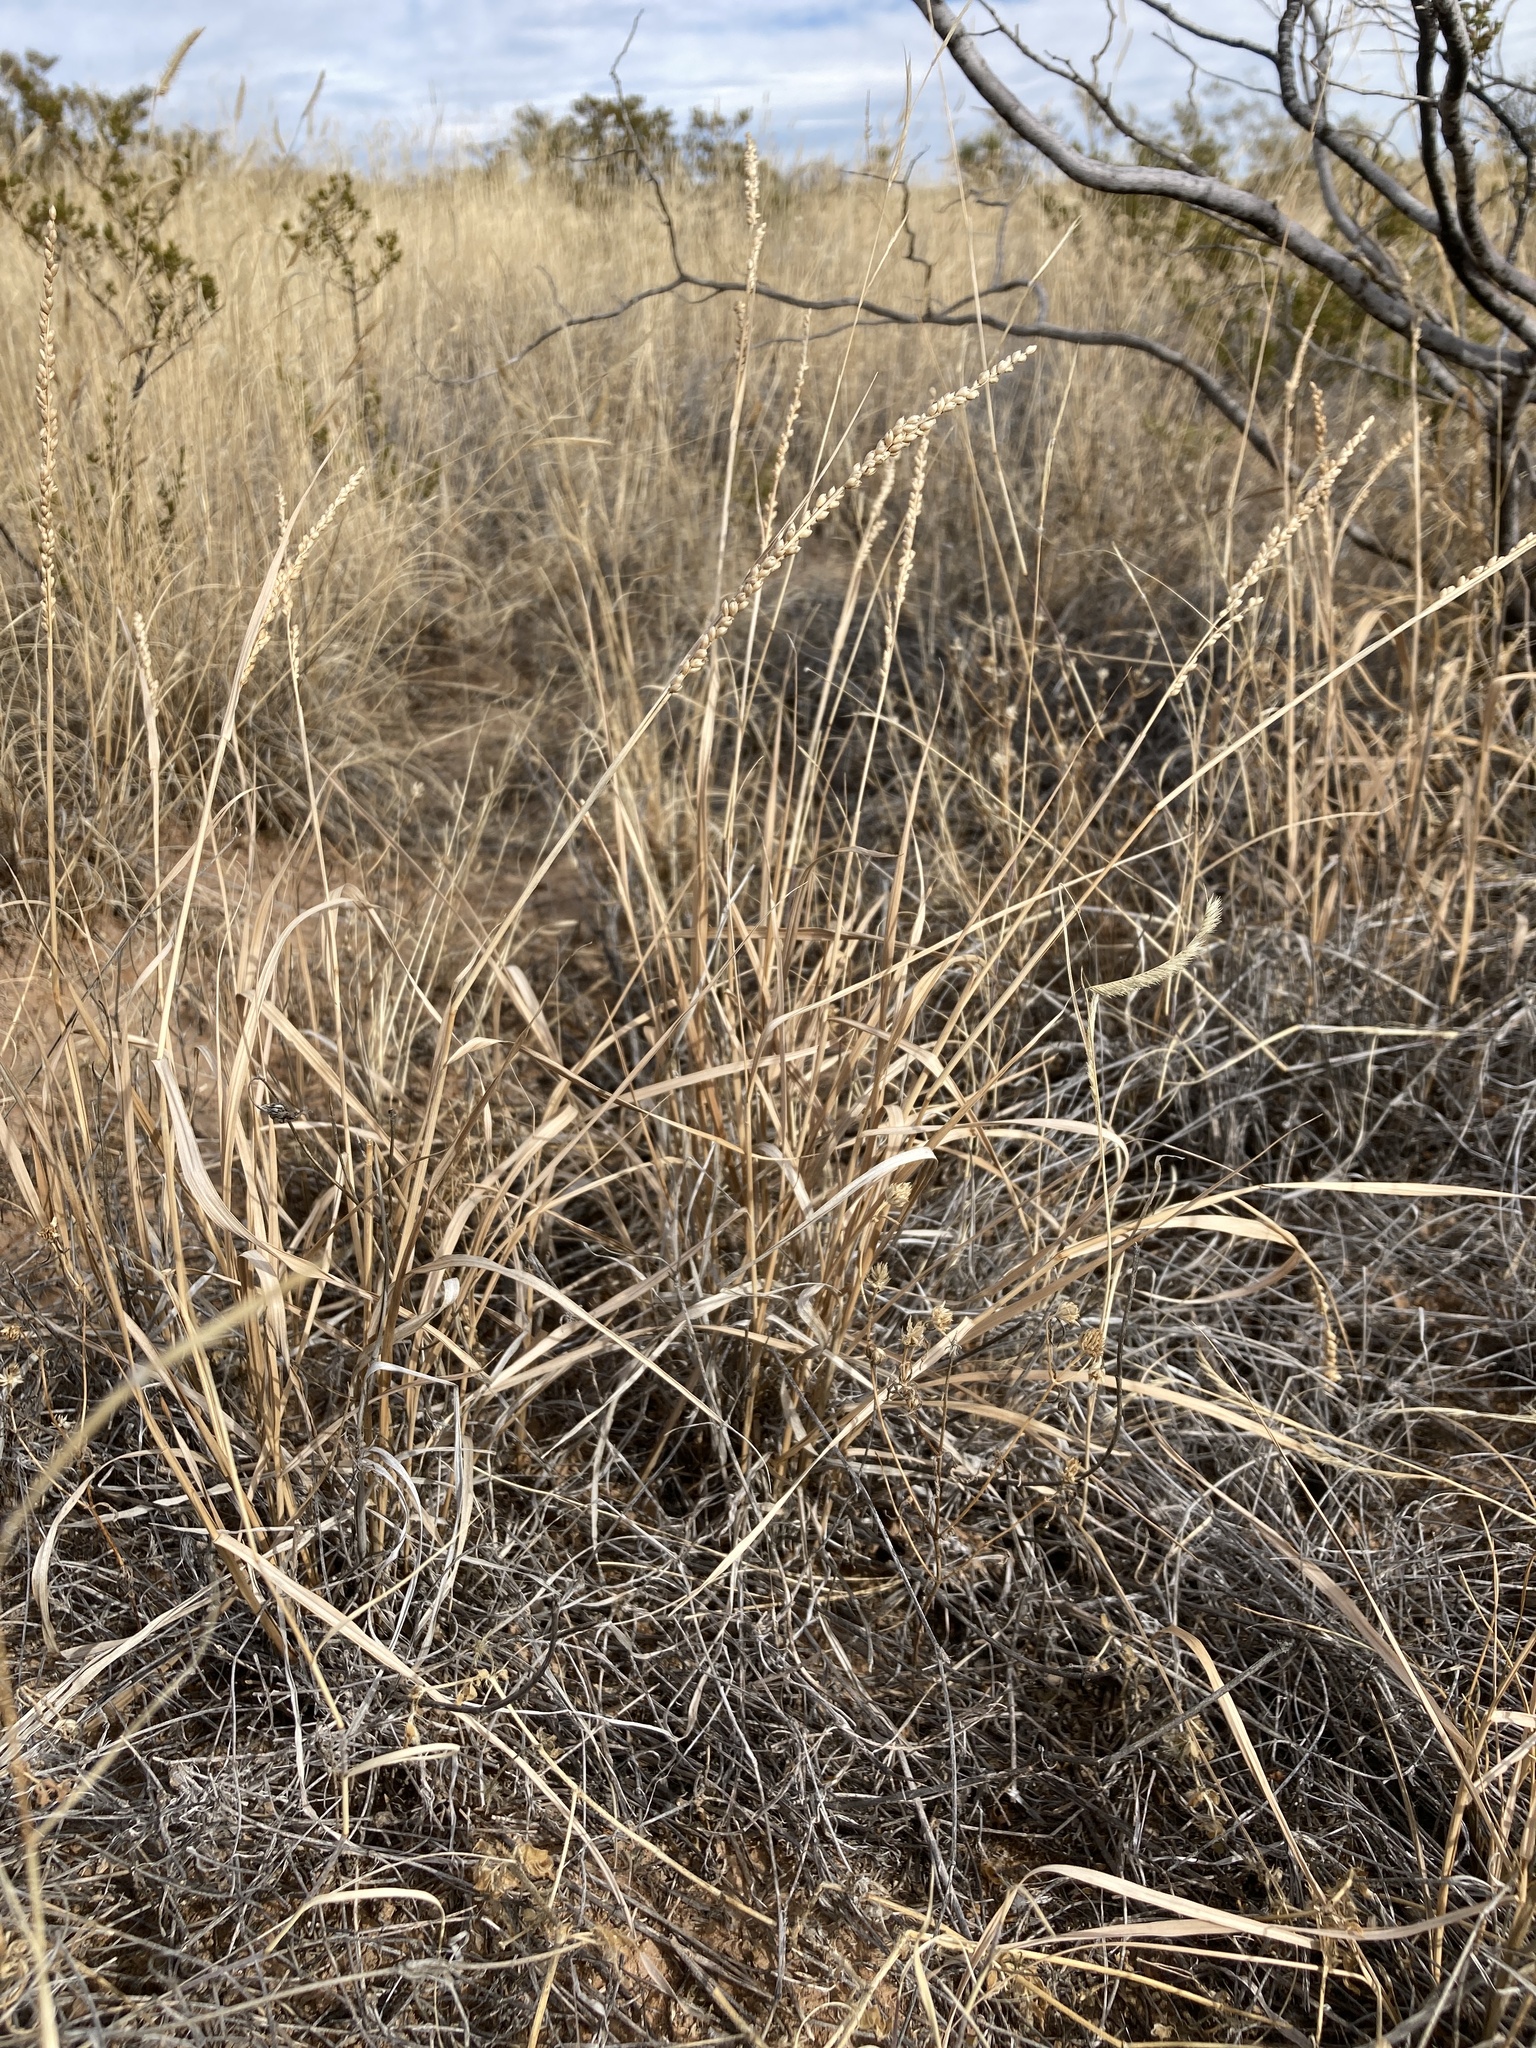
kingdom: Plantae
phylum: Tracheophyta
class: Liliopsida
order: Poales
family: Poaceae
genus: Hopia
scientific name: Hopia obtusa
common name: Vine-mesquite
